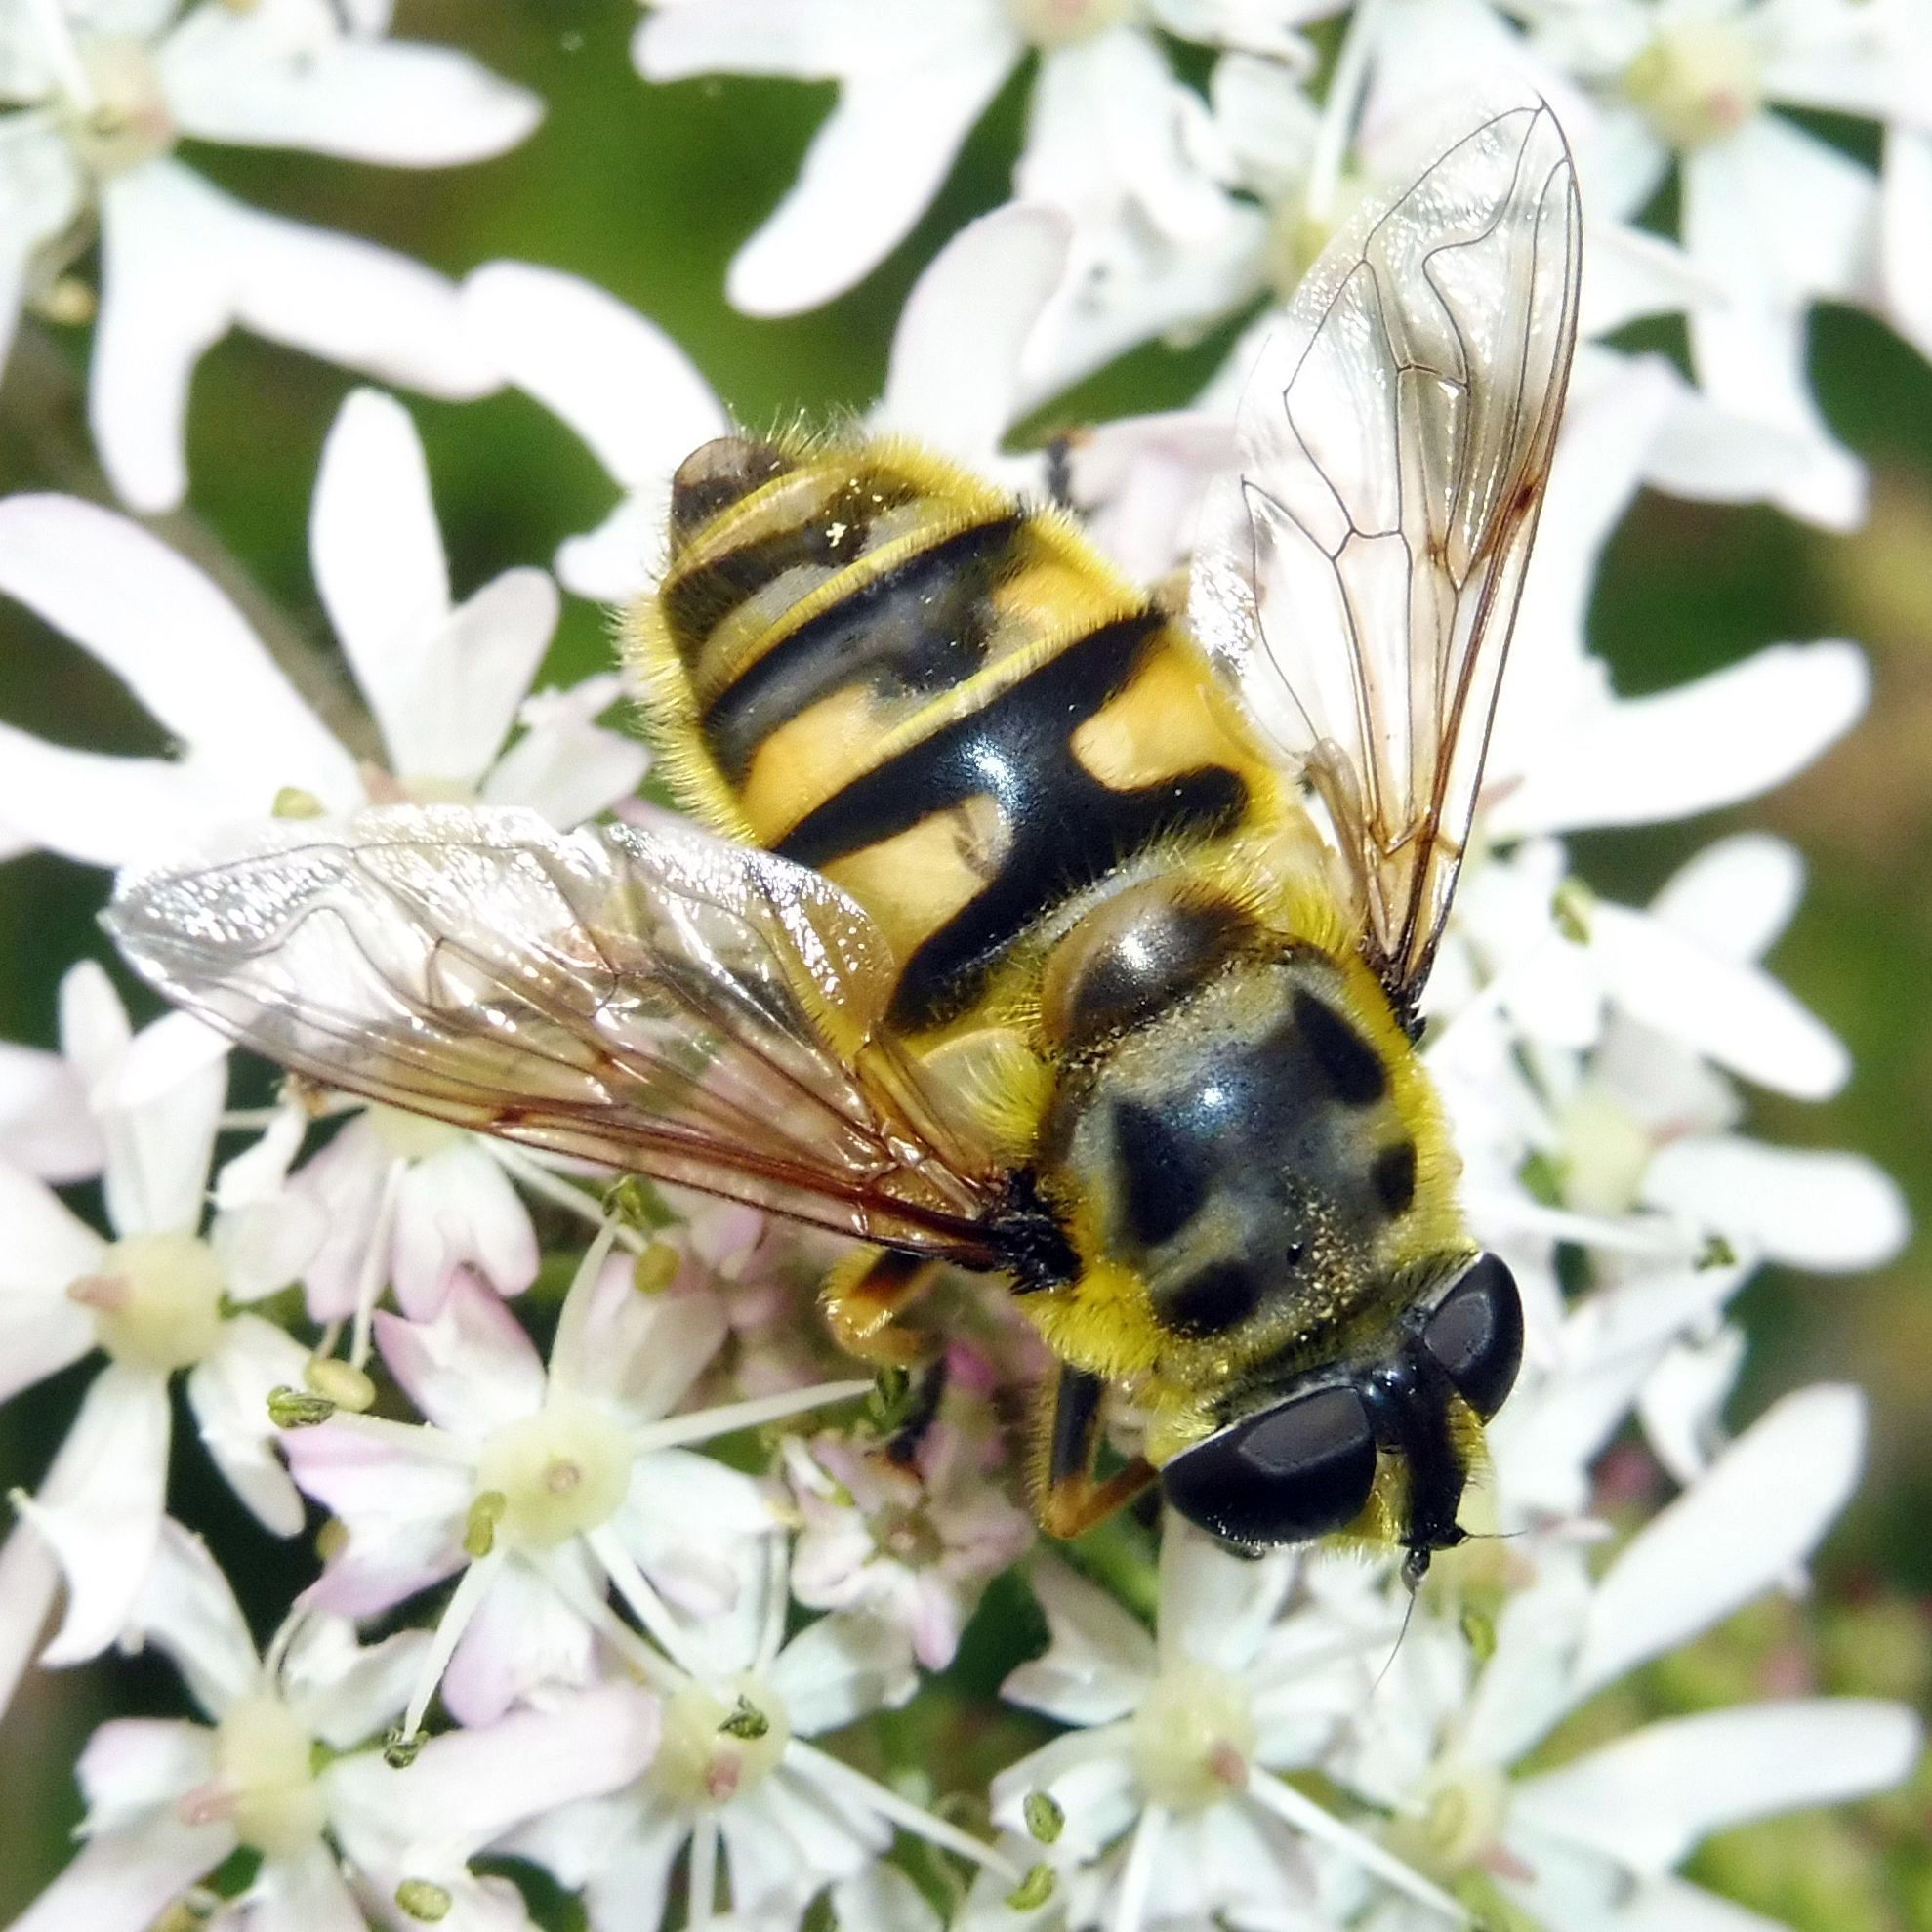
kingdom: Animalia
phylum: Arthropoda
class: Insecta
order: Diptera
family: Syrphidae
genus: Myathropa
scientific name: Myathropa florea
